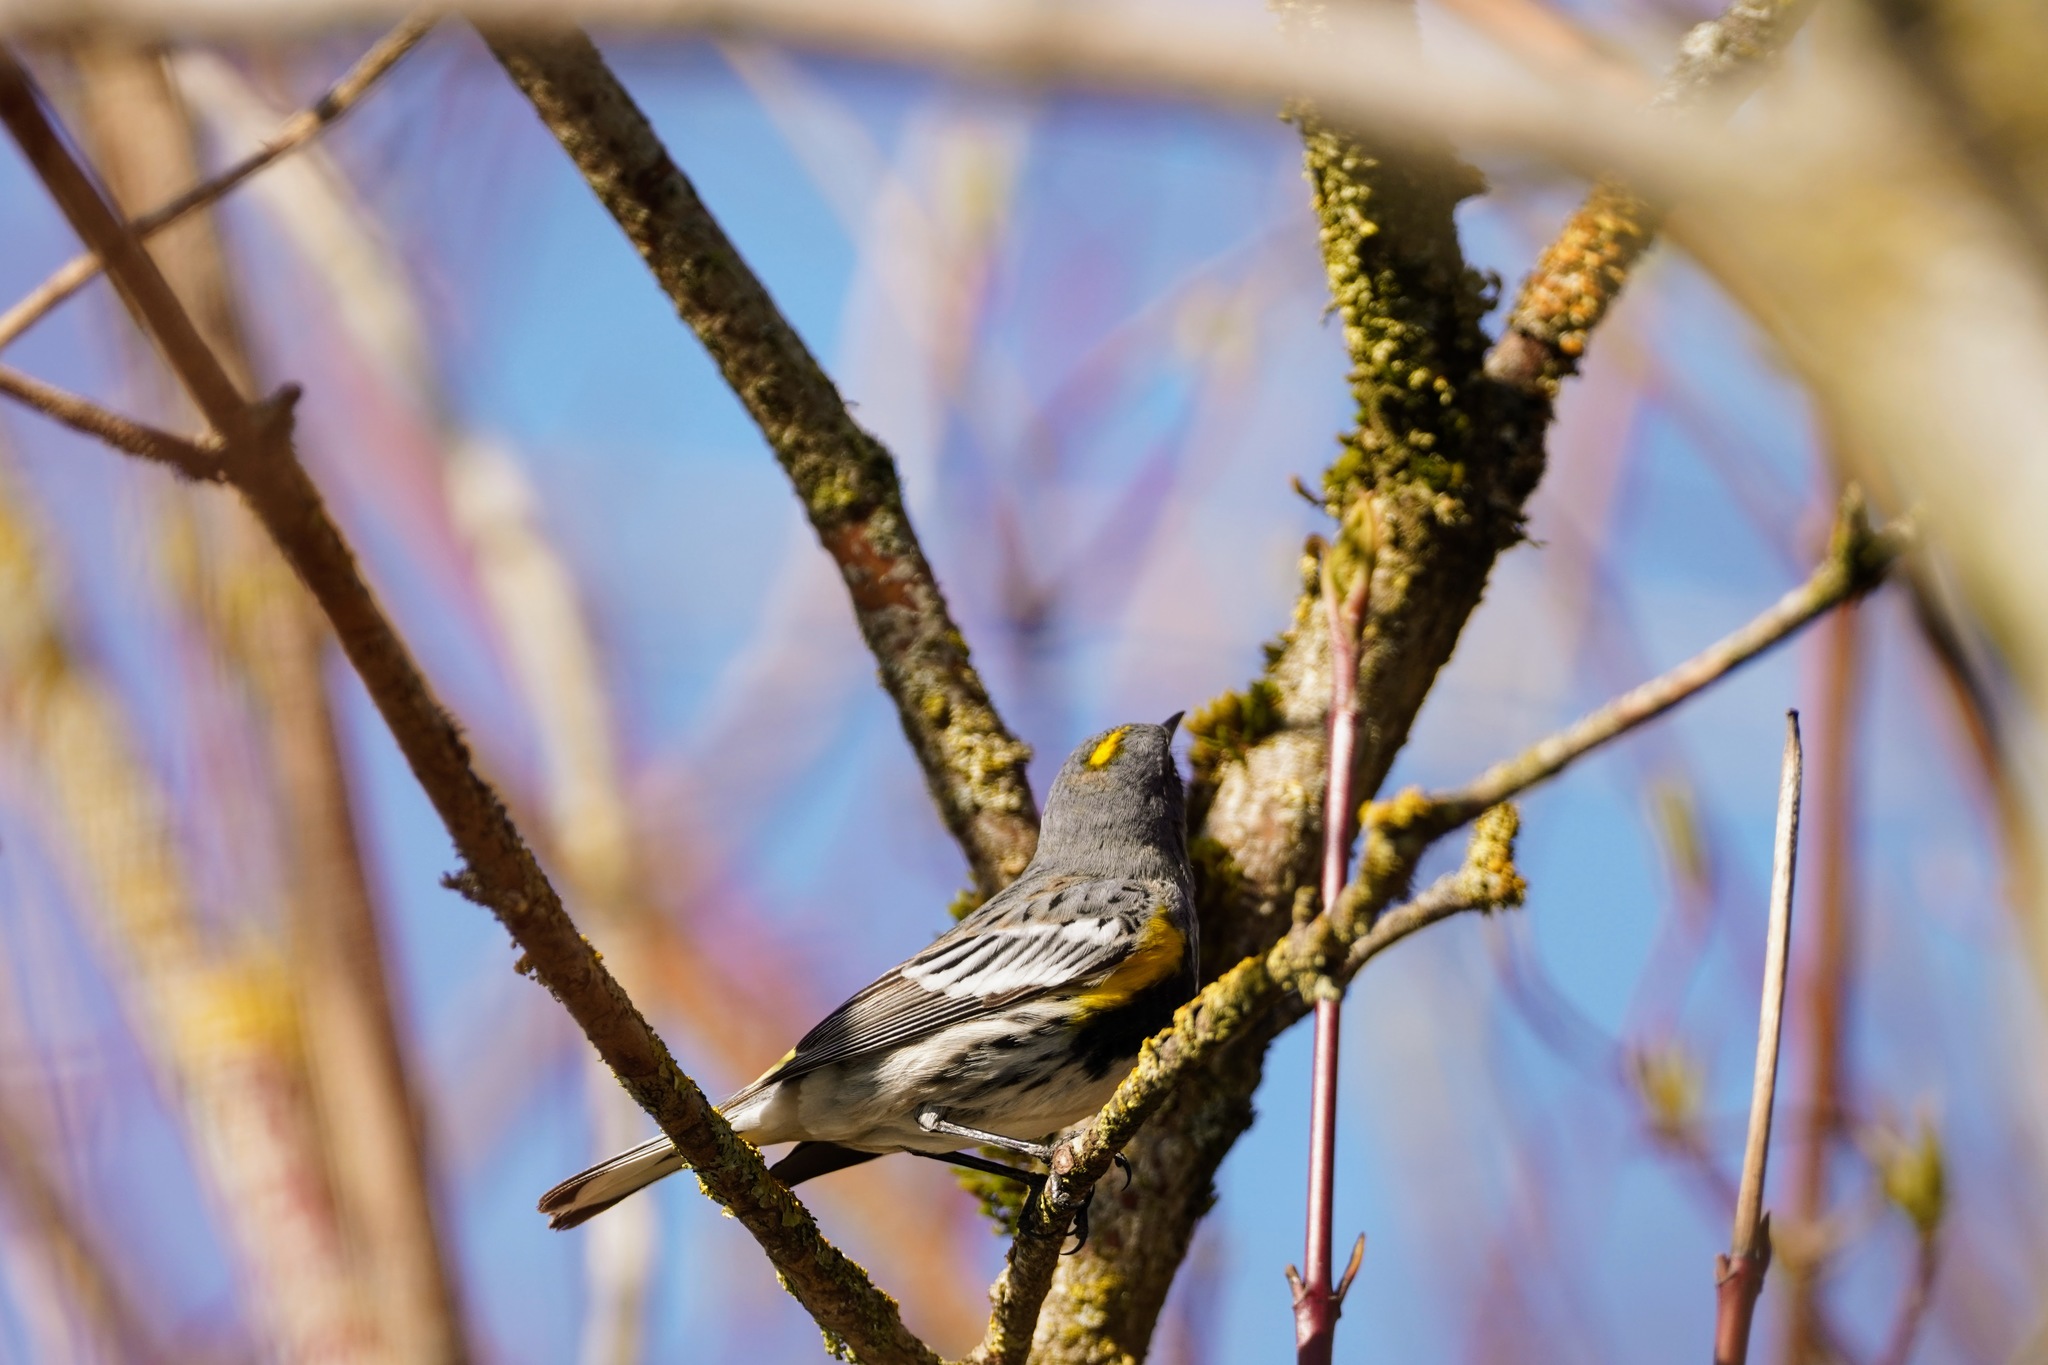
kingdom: Animalia
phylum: Chordata
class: Aves
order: Passeriformes
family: Parulidae
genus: Setophaga
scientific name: Setophaga coronata
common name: Myrtle warbler
